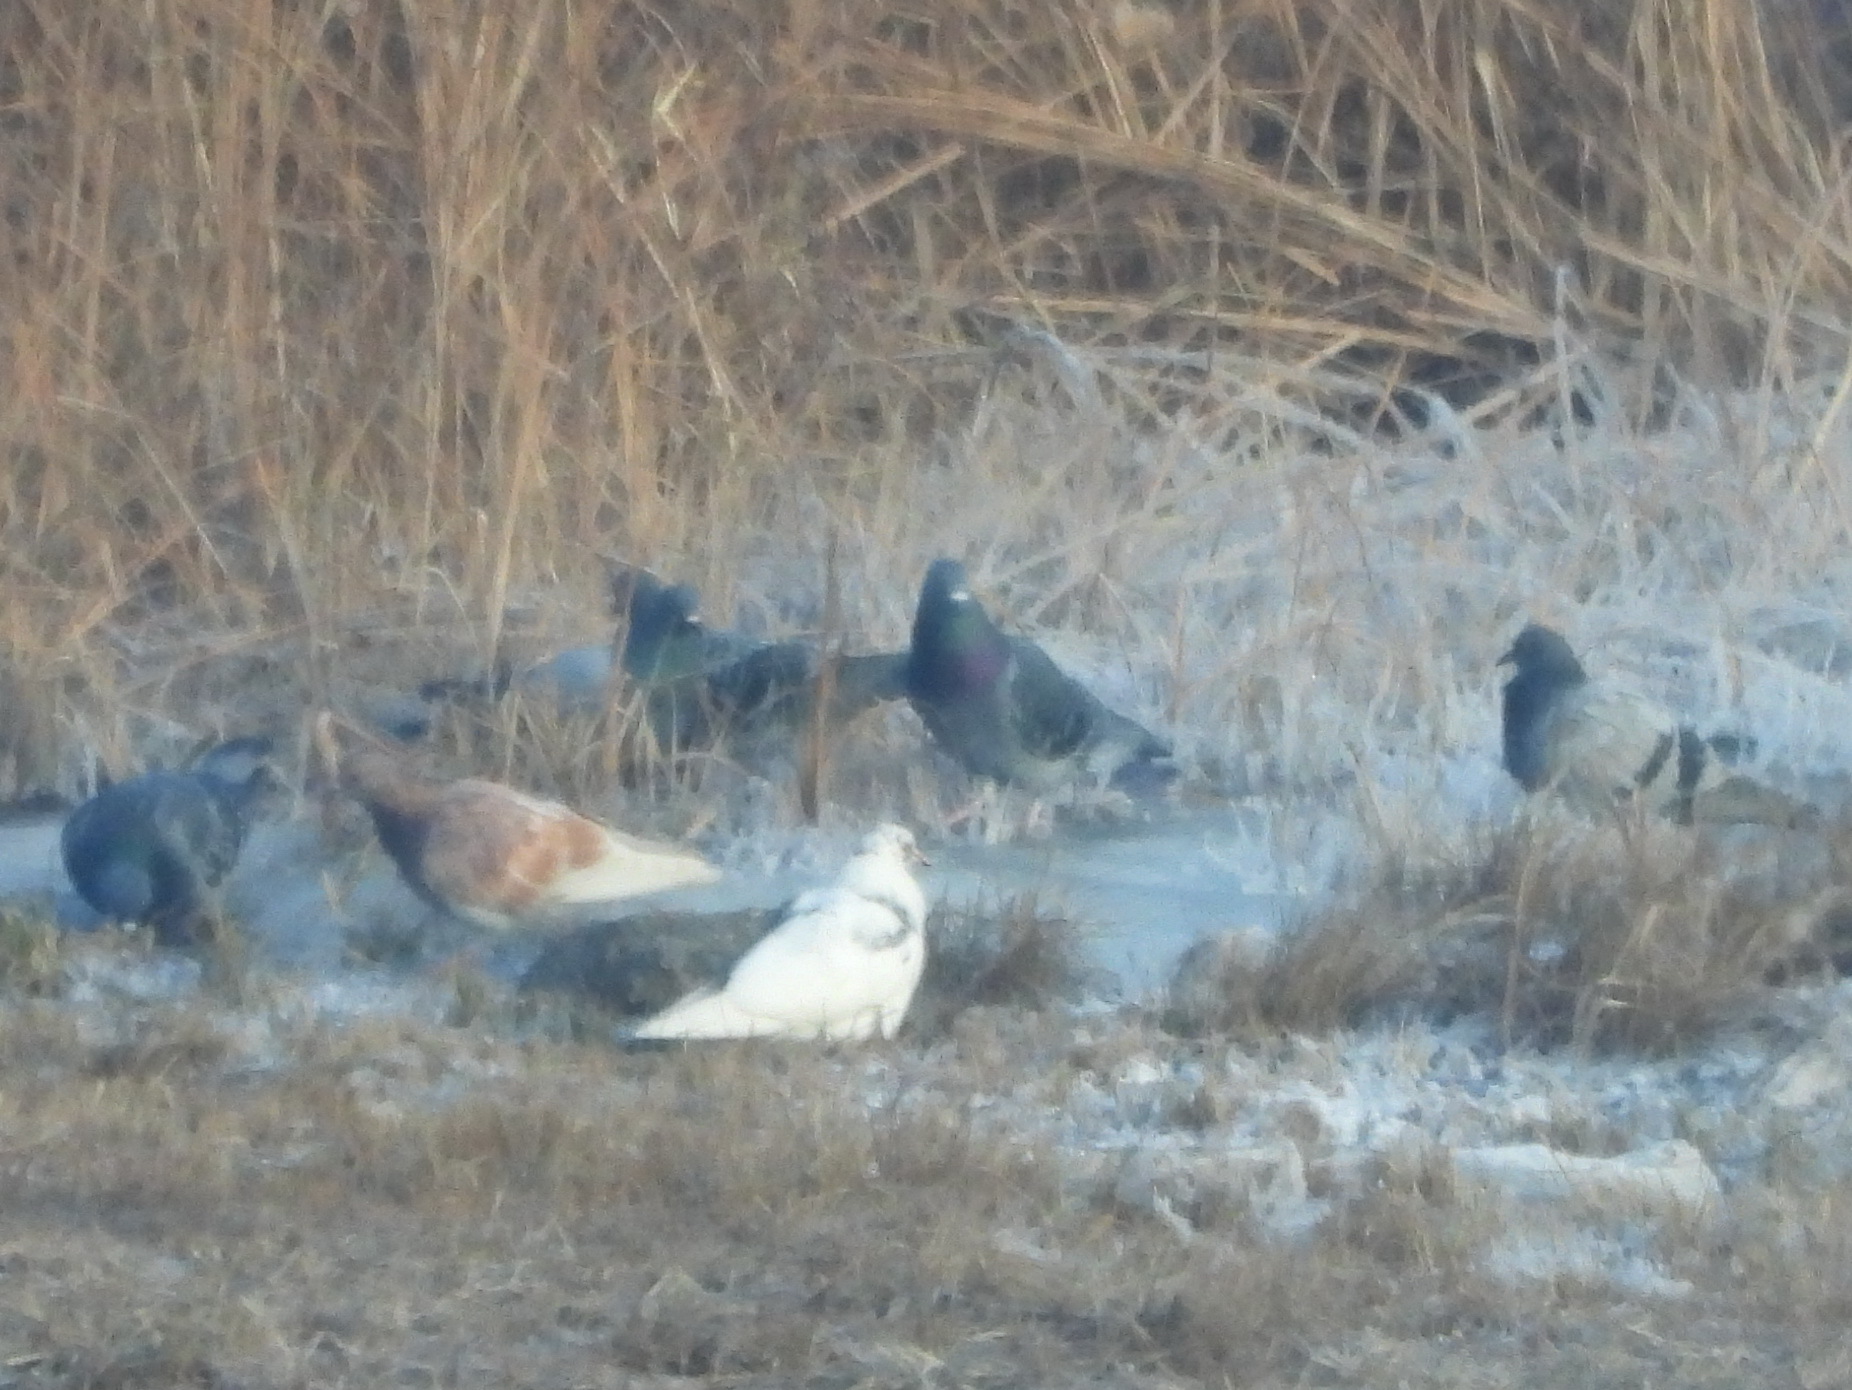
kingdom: Animalia
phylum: Chordata
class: Aves
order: Columbiformes
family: Columbidae
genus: Columba
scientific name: Columba livia
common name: Rock pigeon
